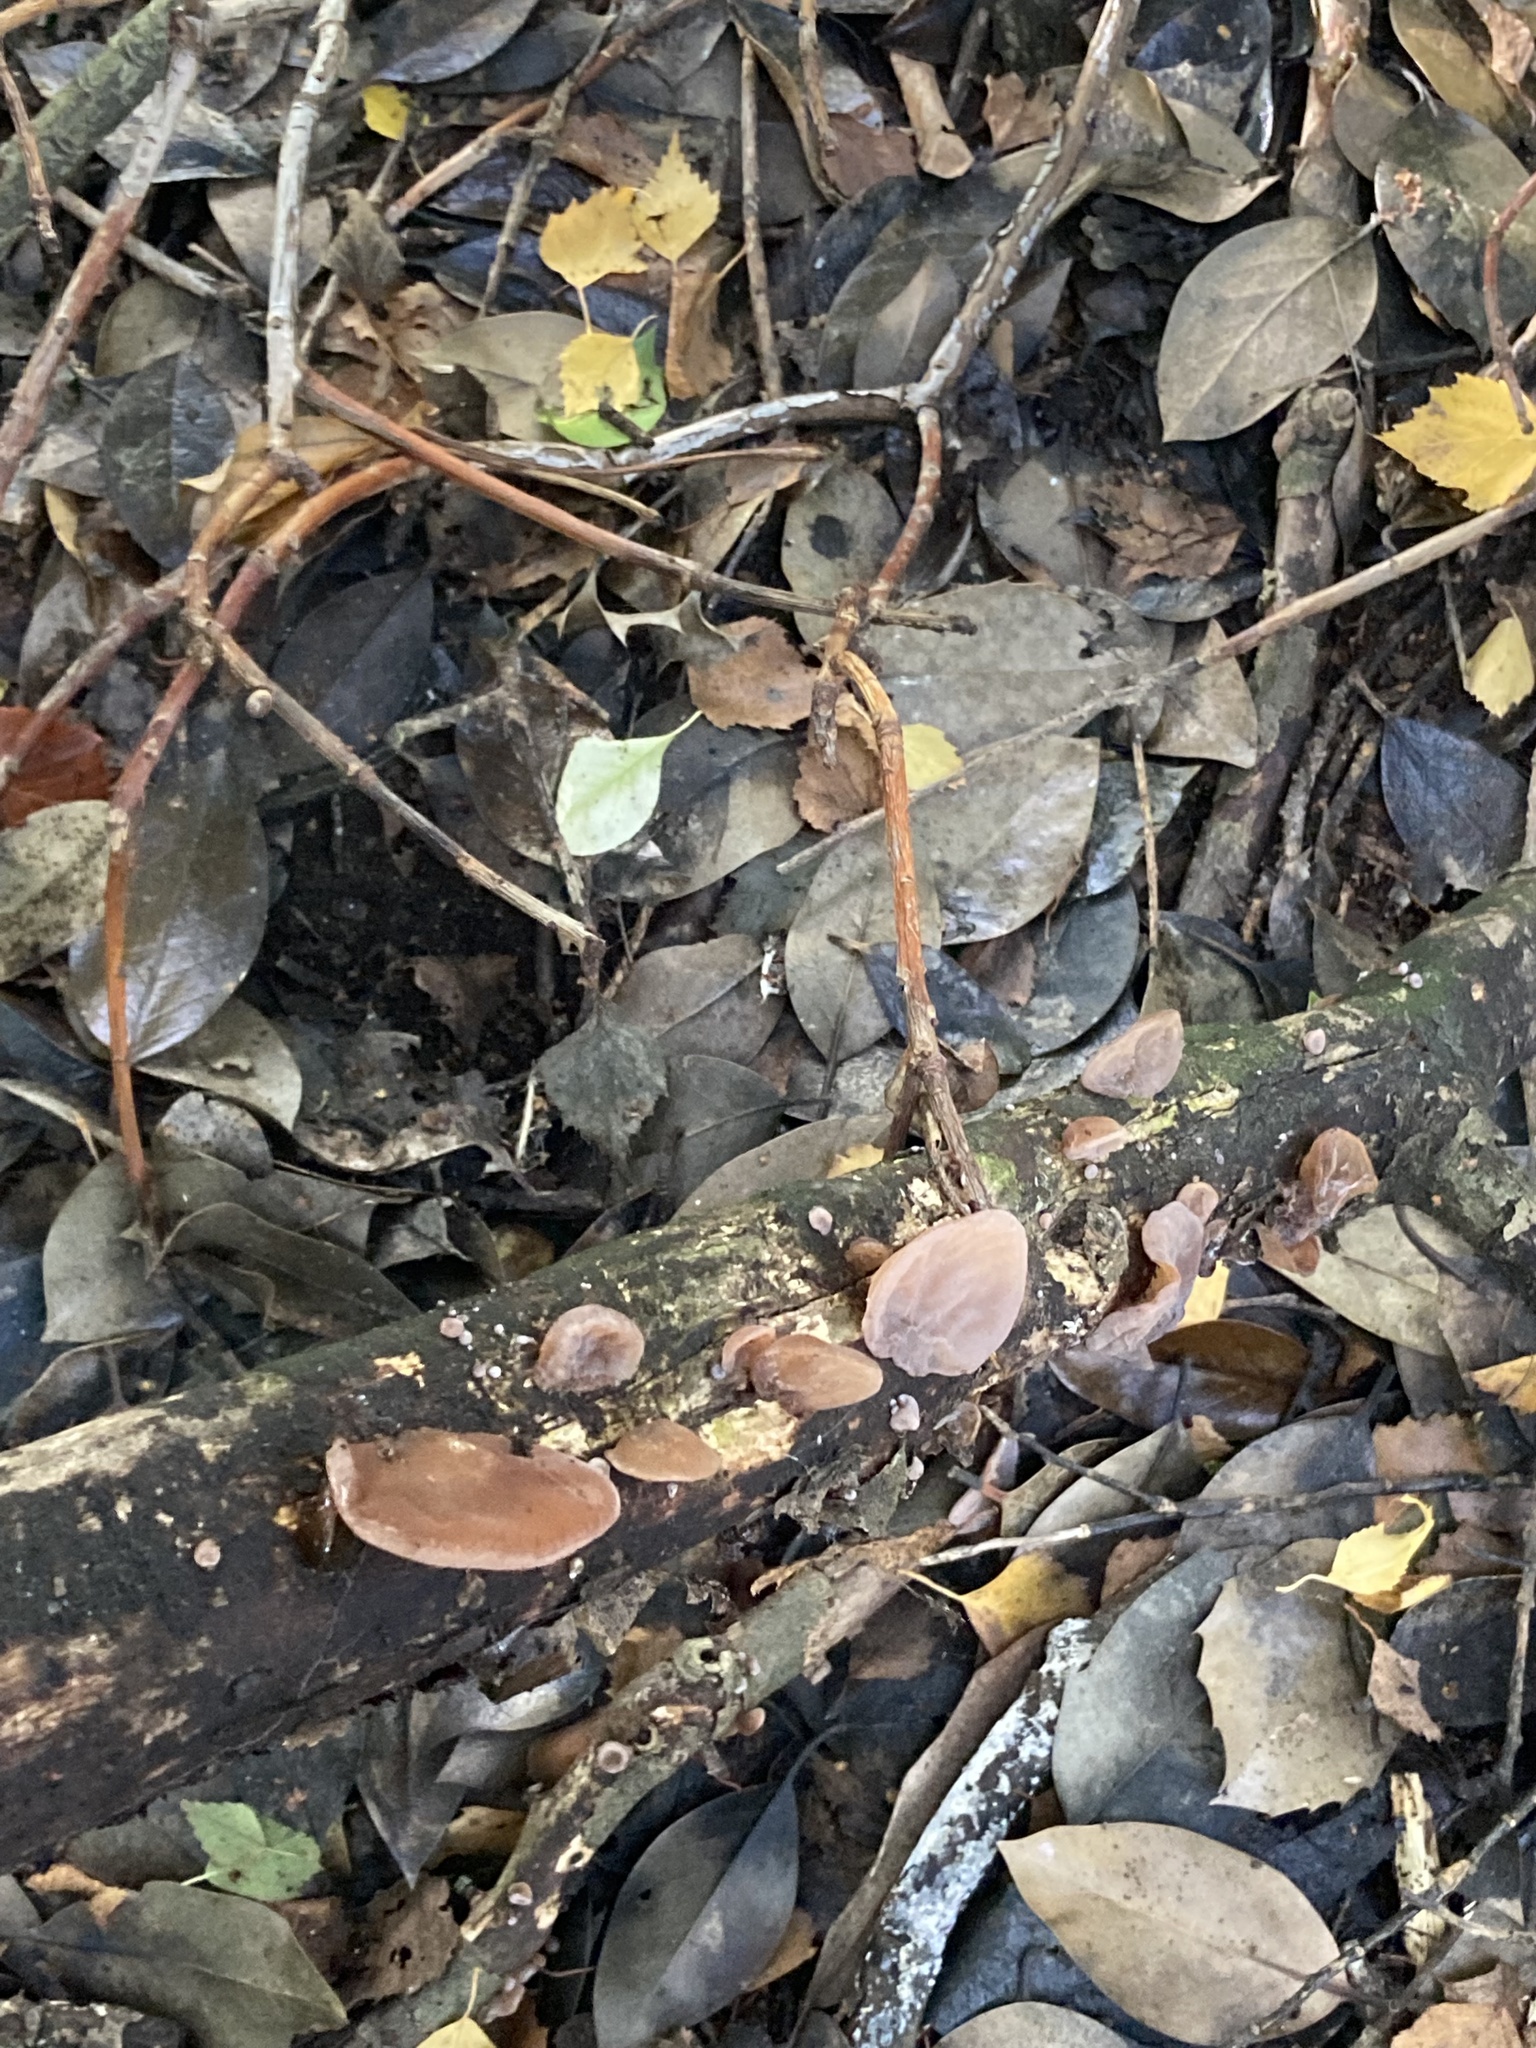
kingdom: Fungi
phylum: Basidiomycota
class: Agaricomycetes
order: Auriculariales
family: Auriculariaceae
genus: Auricularia
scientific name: Auricularia auricula-judae
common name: Jelly ear
